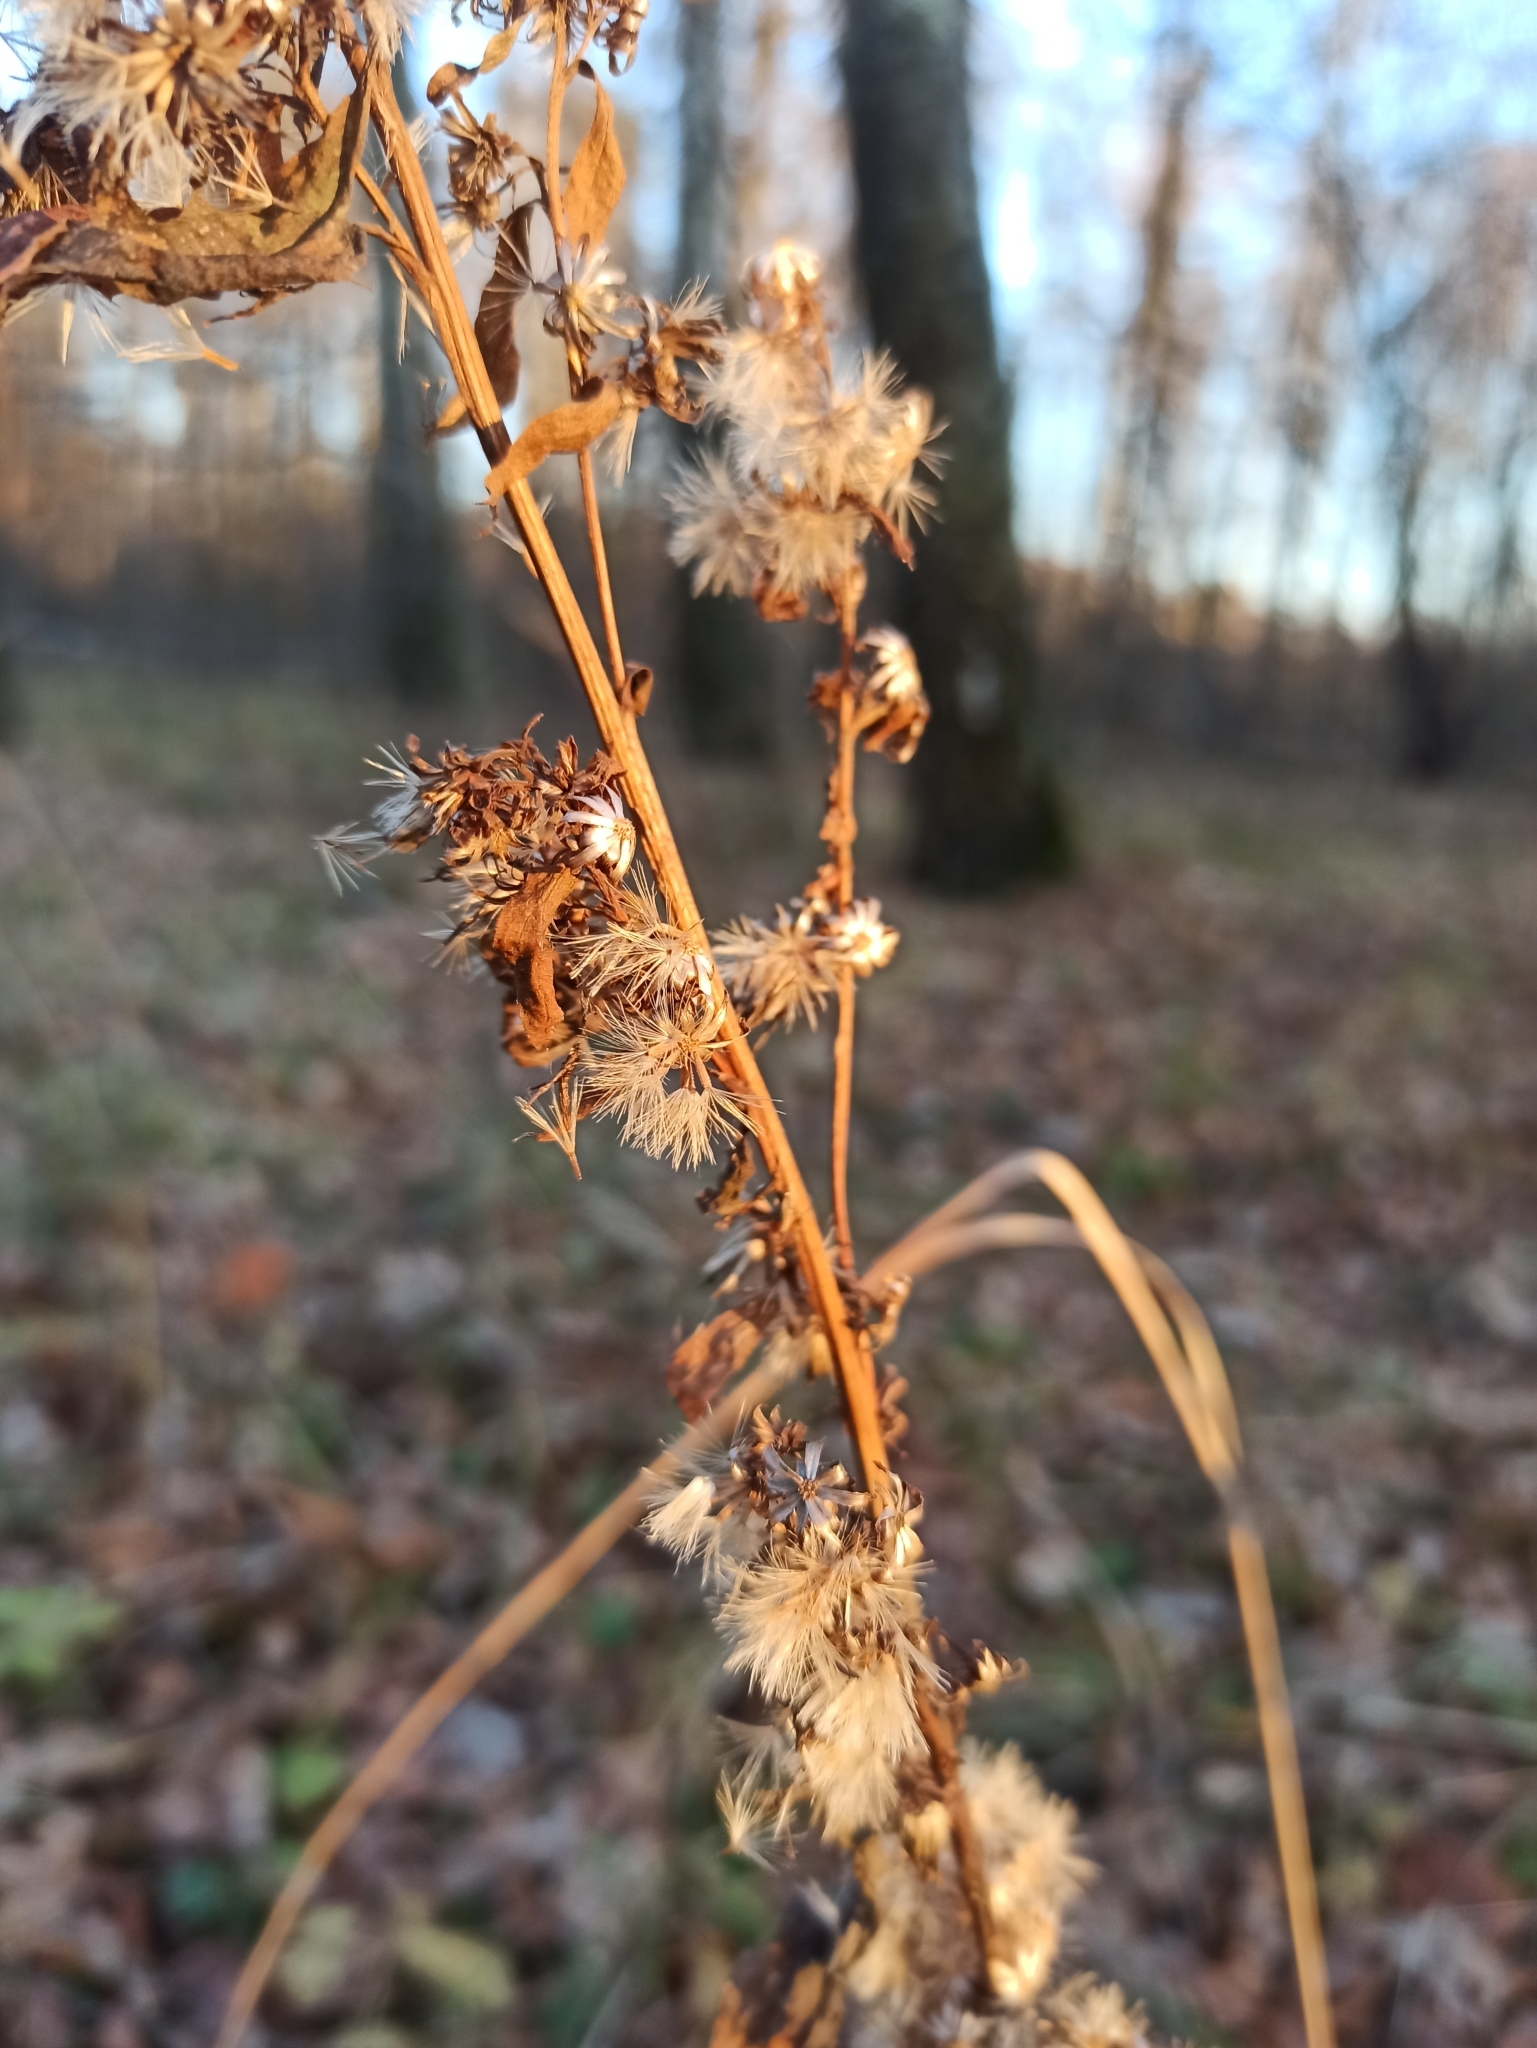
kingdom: Plantae
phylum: Tracheophyta
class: Magnoliopsida
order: Asterales
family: Asteraceae
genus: Solidago
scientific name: Solidago virgaurea
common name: Goldenrod
